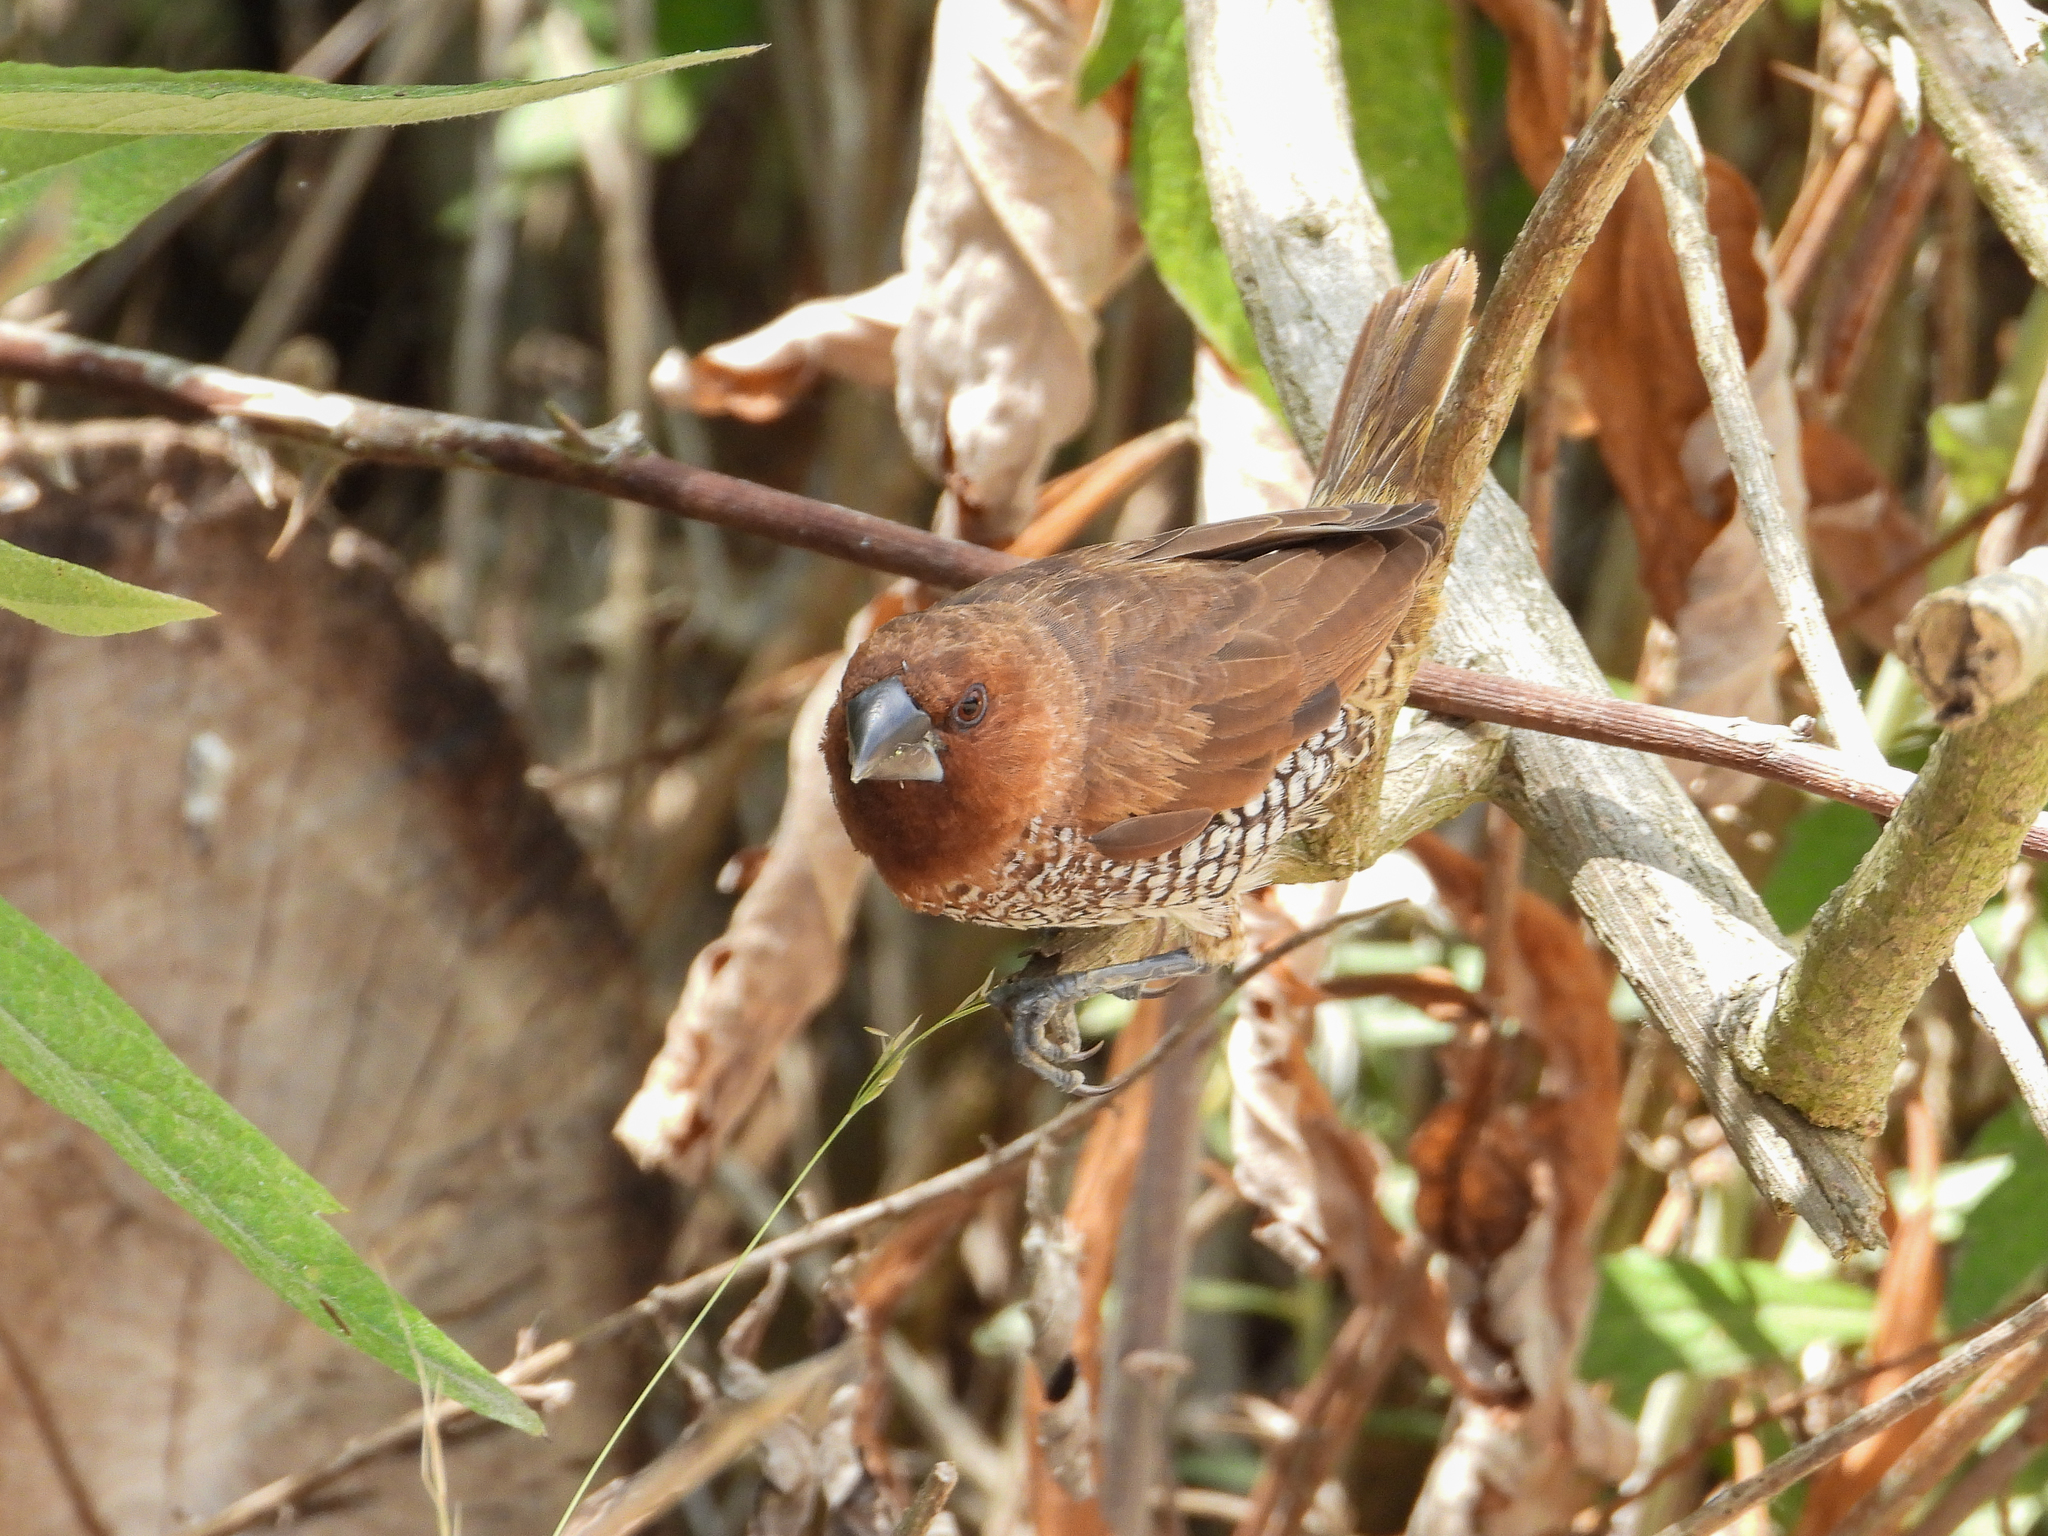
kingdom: Animalia
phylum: Chordata
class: Aves
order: Passeriformes
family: Estrildidae
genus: Lonchura
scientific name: Lonchura punctulata
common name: Scaly-breasted munia
